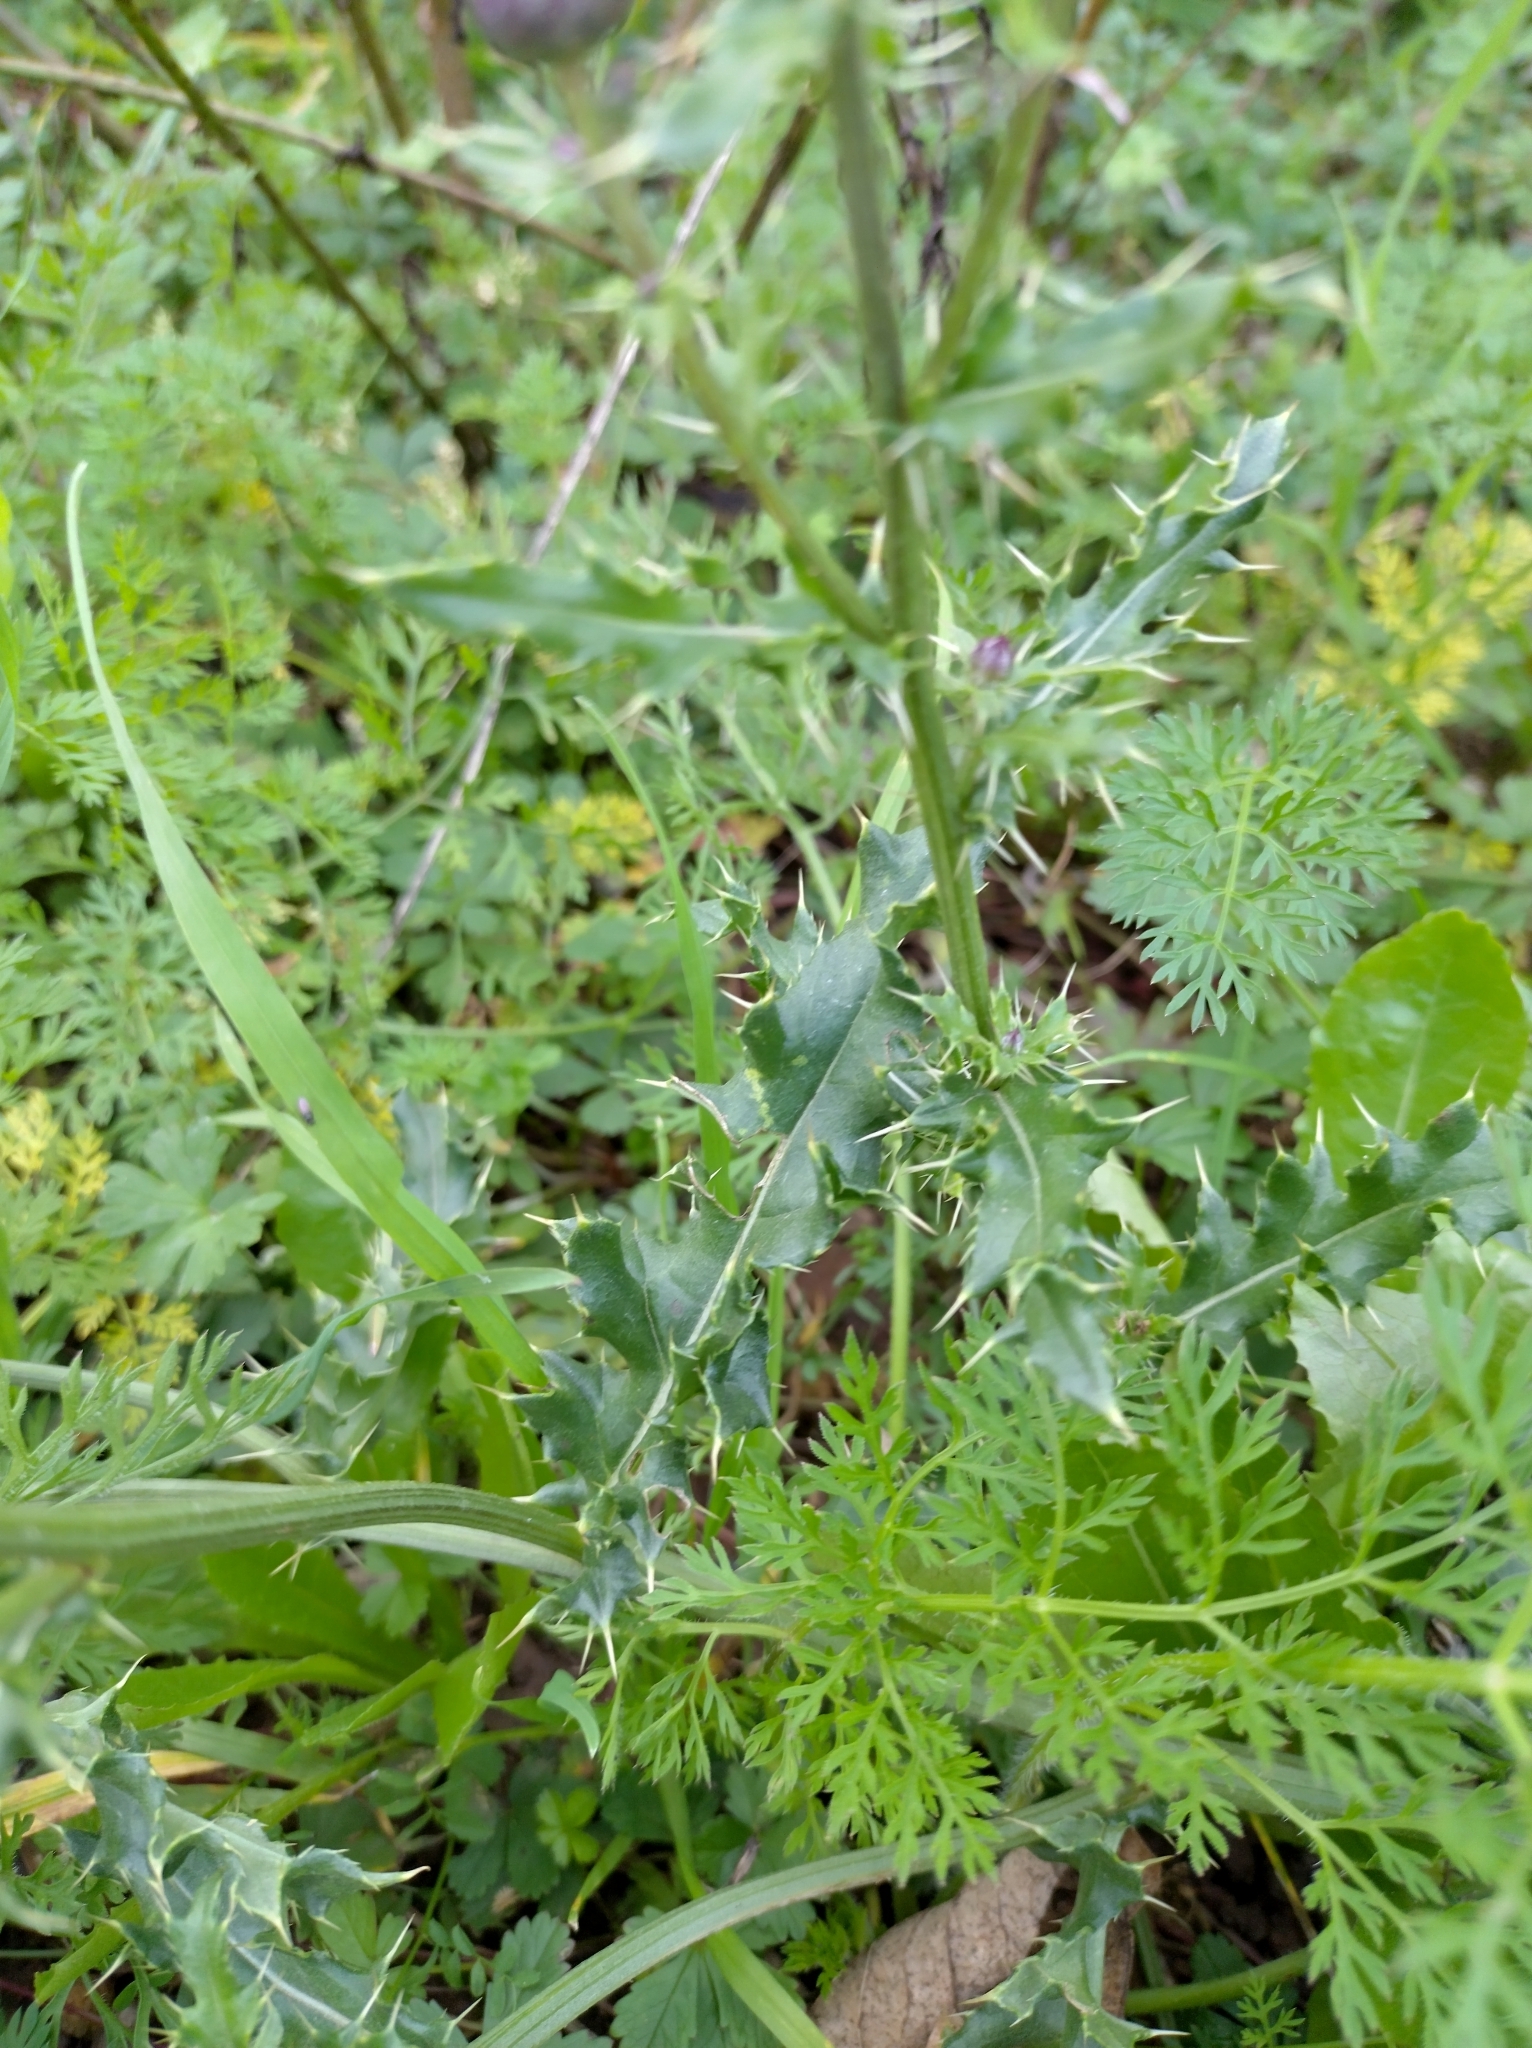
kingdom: Plantae
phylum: Tracheophyta
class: Magnoliopsida
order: Asterales
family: Asteraceae
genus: Cirsium
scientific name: Cirsium arvense
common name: Creeping thistle
